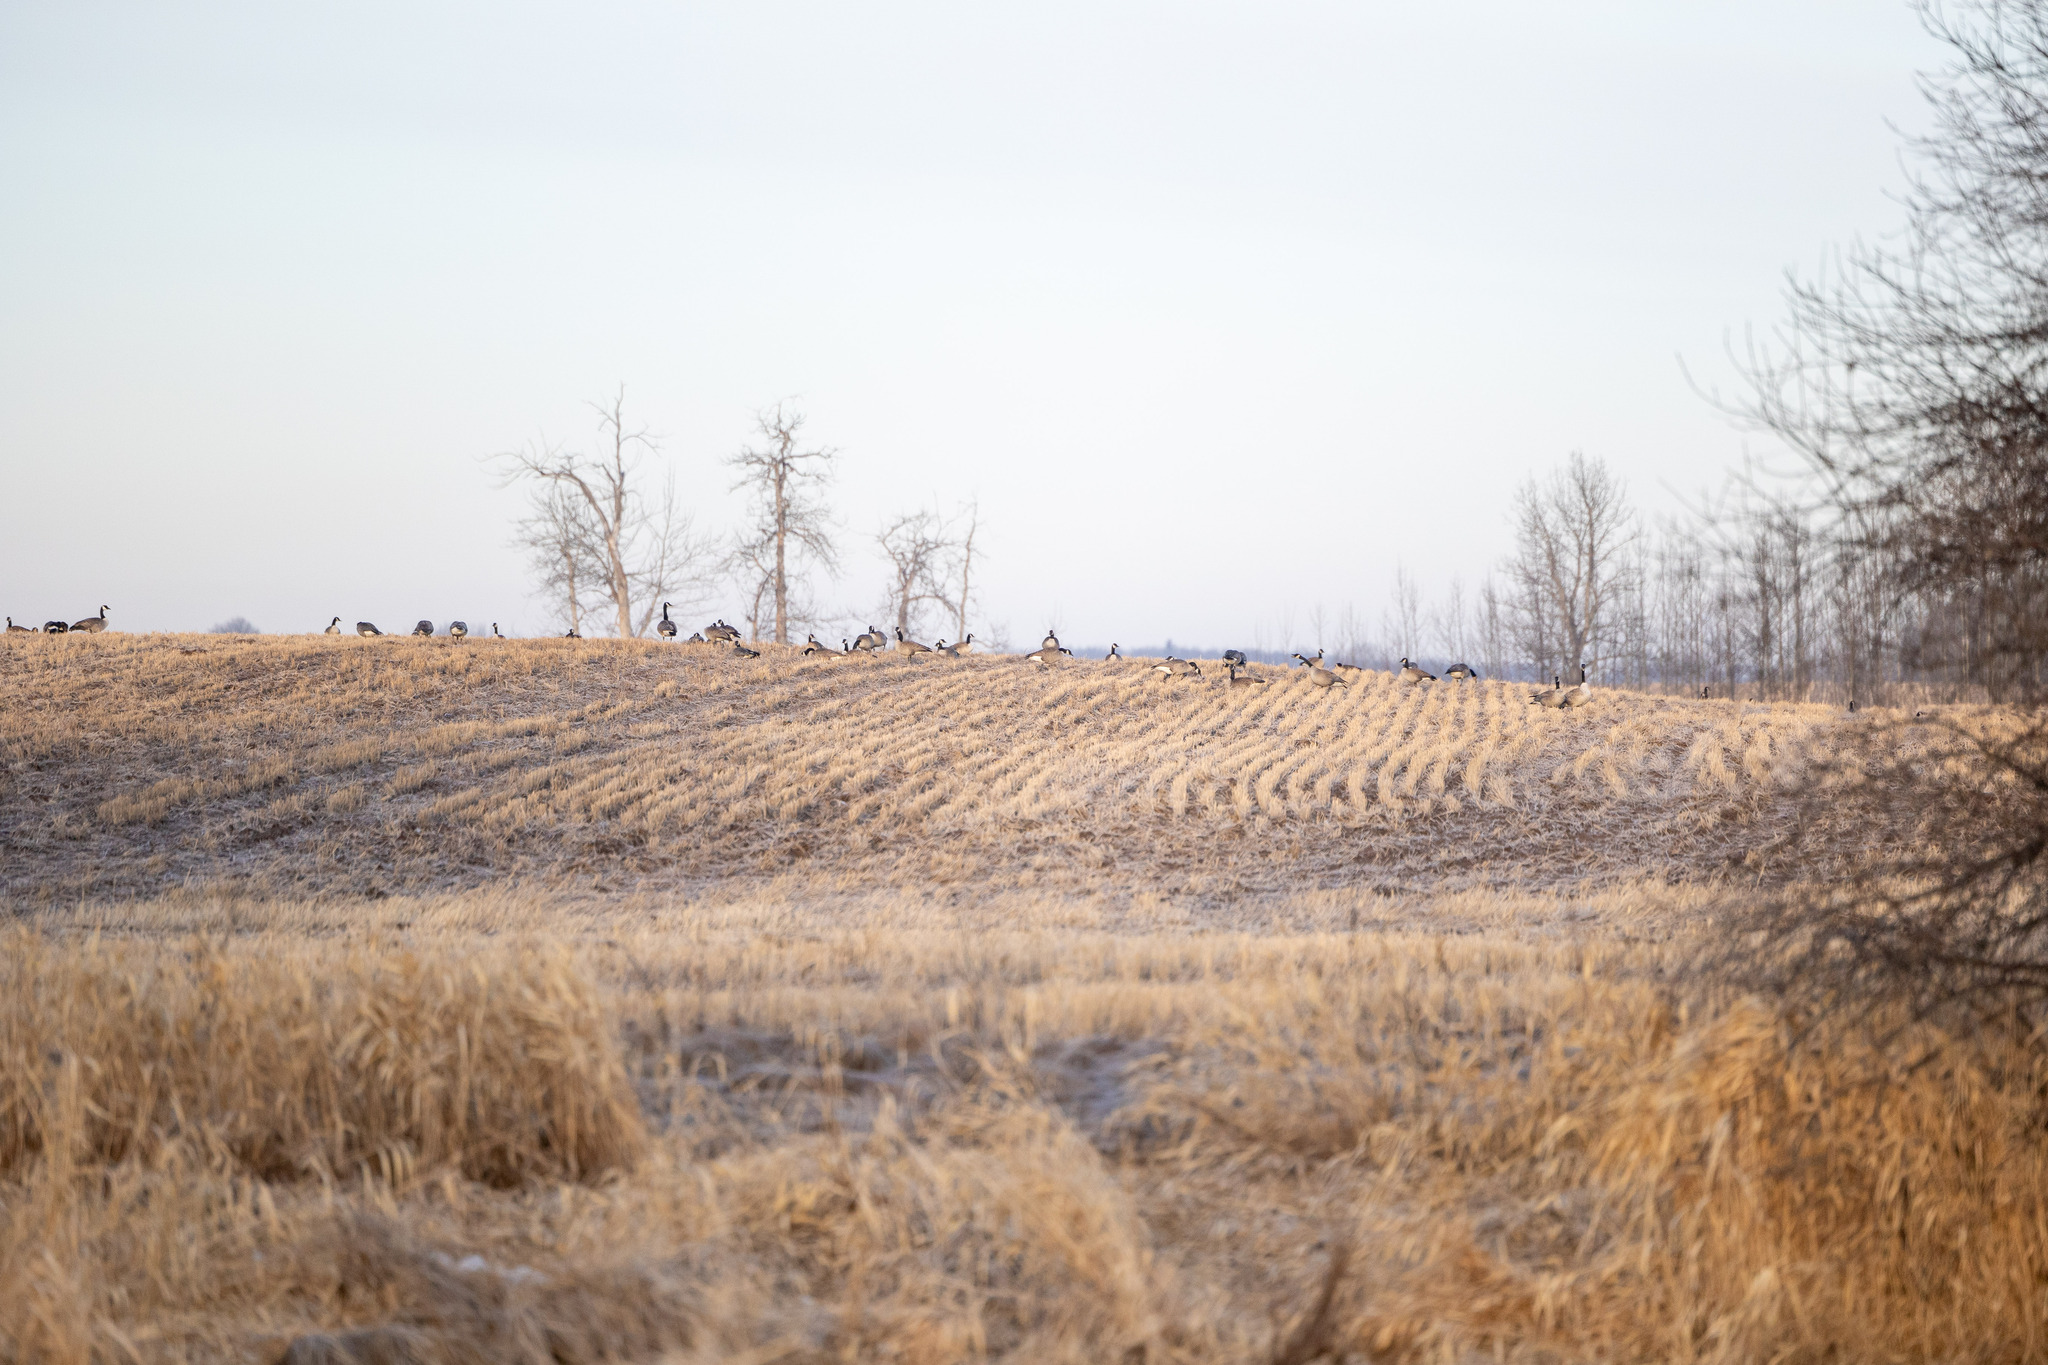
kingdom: Animalia
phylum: Chordata
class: Aves
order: Anseriformes
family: Anatidae
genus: Branta
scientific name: Branta canadensis
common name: Canada goose
